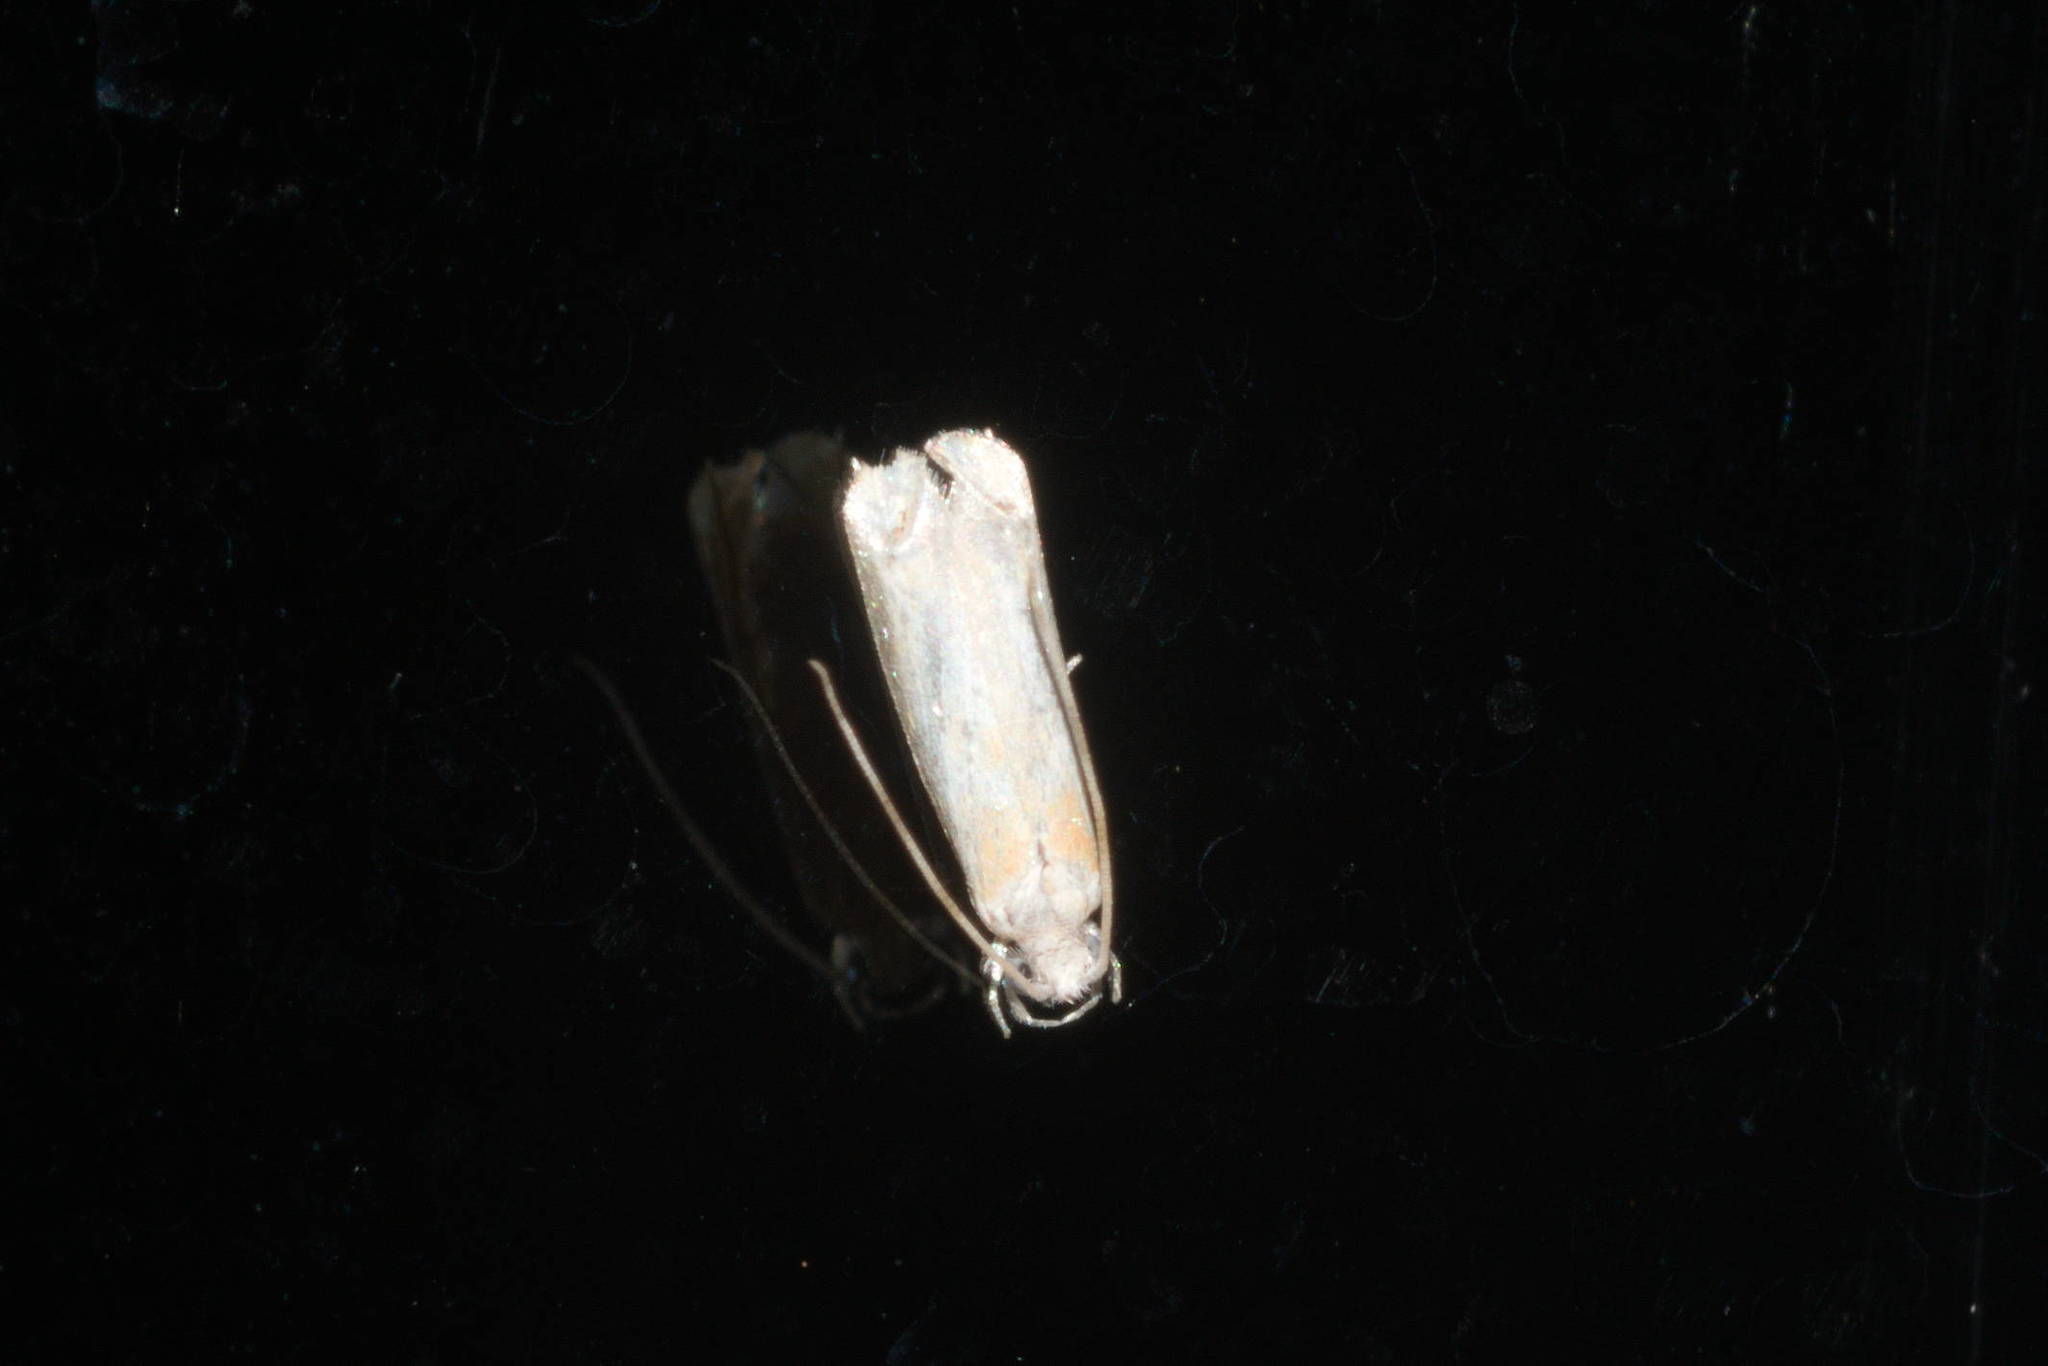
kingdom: Animalia
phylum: Arthropoda
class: Insecta
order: Lepidoptera
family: Dryadaulidae
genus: Dryadaula
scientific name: Dryadaula terpsichorella
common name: Dancing moth
